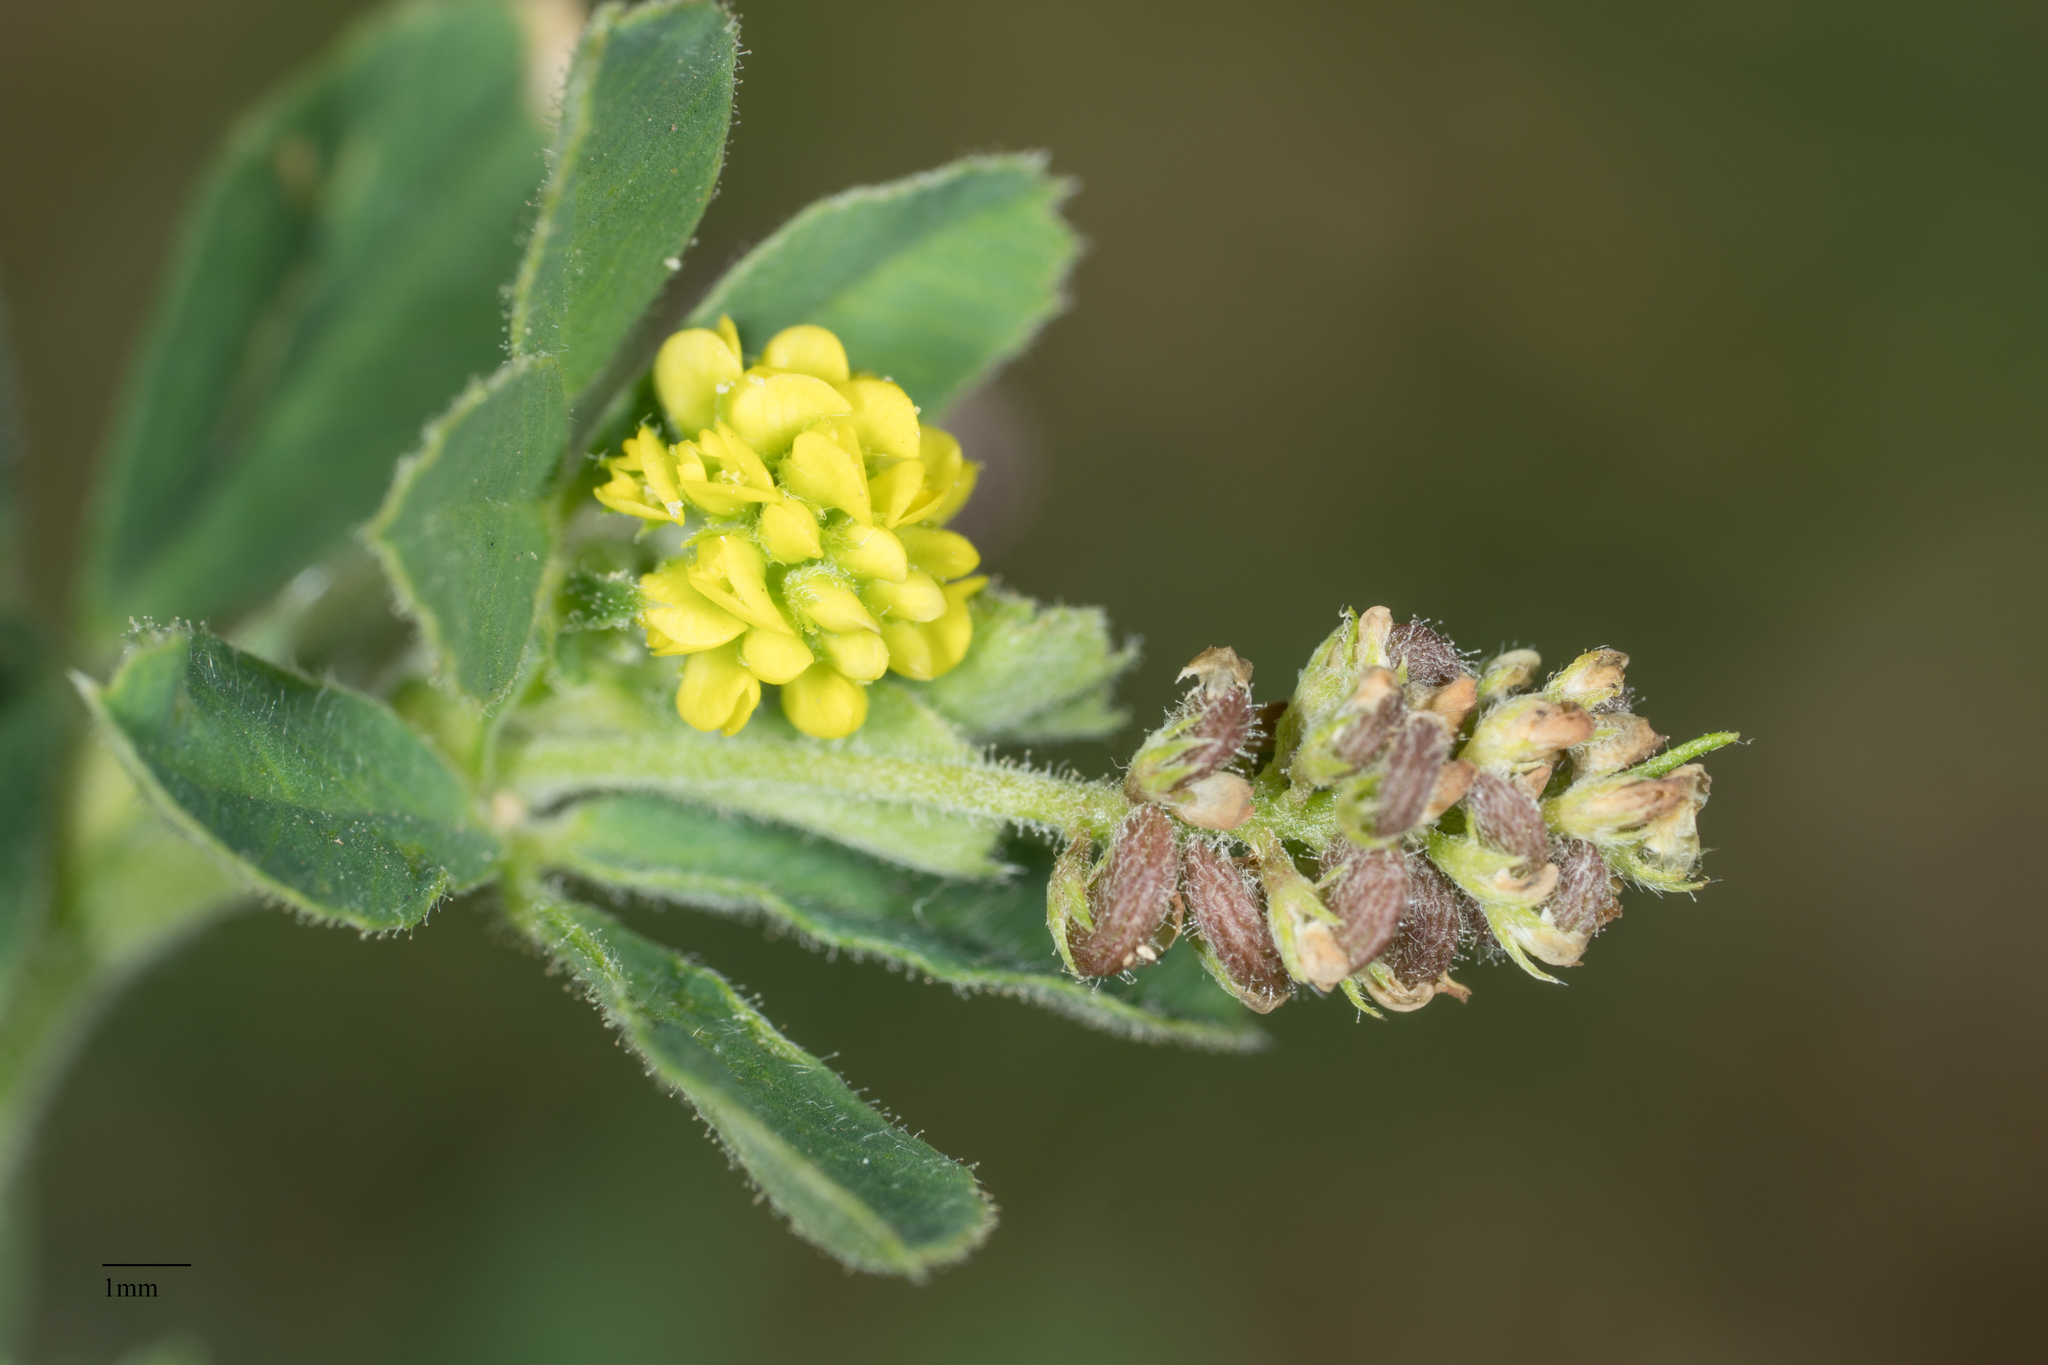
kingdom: Plantae
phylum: Tracheophyta
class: Magnoliopsida
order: Fabales
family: Fabaceae
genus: Medicago
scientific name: Medicago lupulina
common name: Black medick
